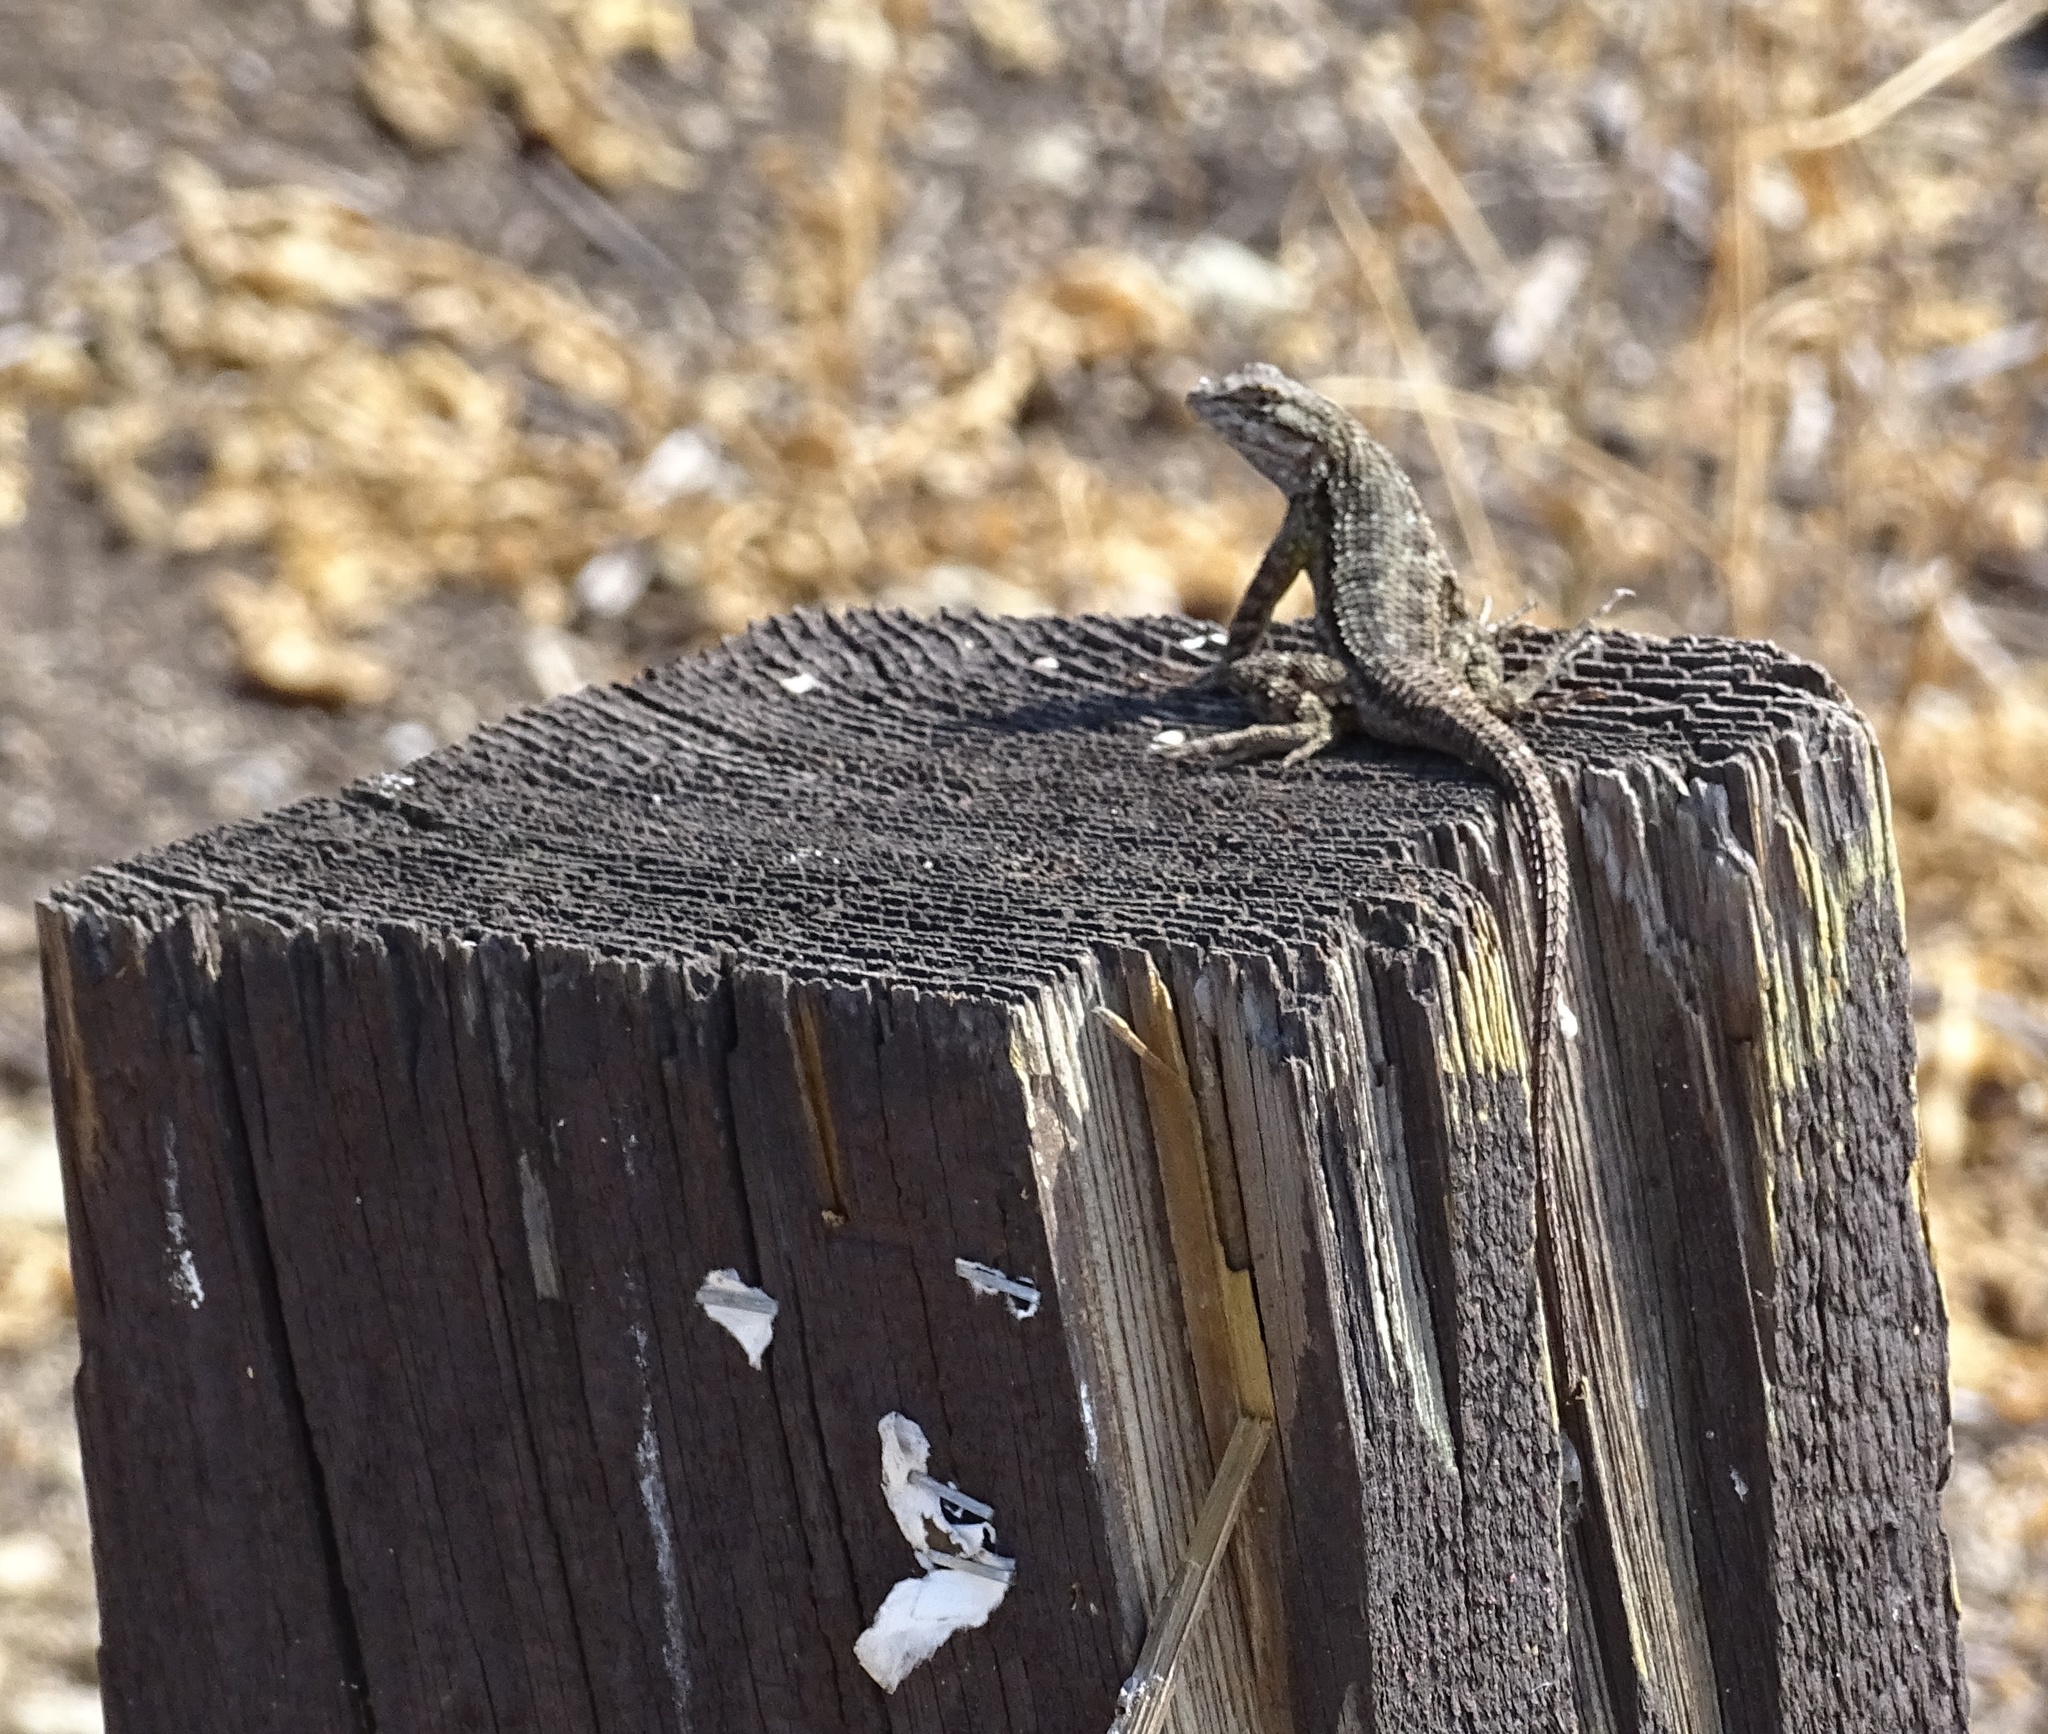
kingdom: Animalia
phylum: Chordata
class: Squamata
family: Phrynosomatidae
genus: Sceloporus
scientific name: Sceloporus occidentalis
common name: Western fence lizard
